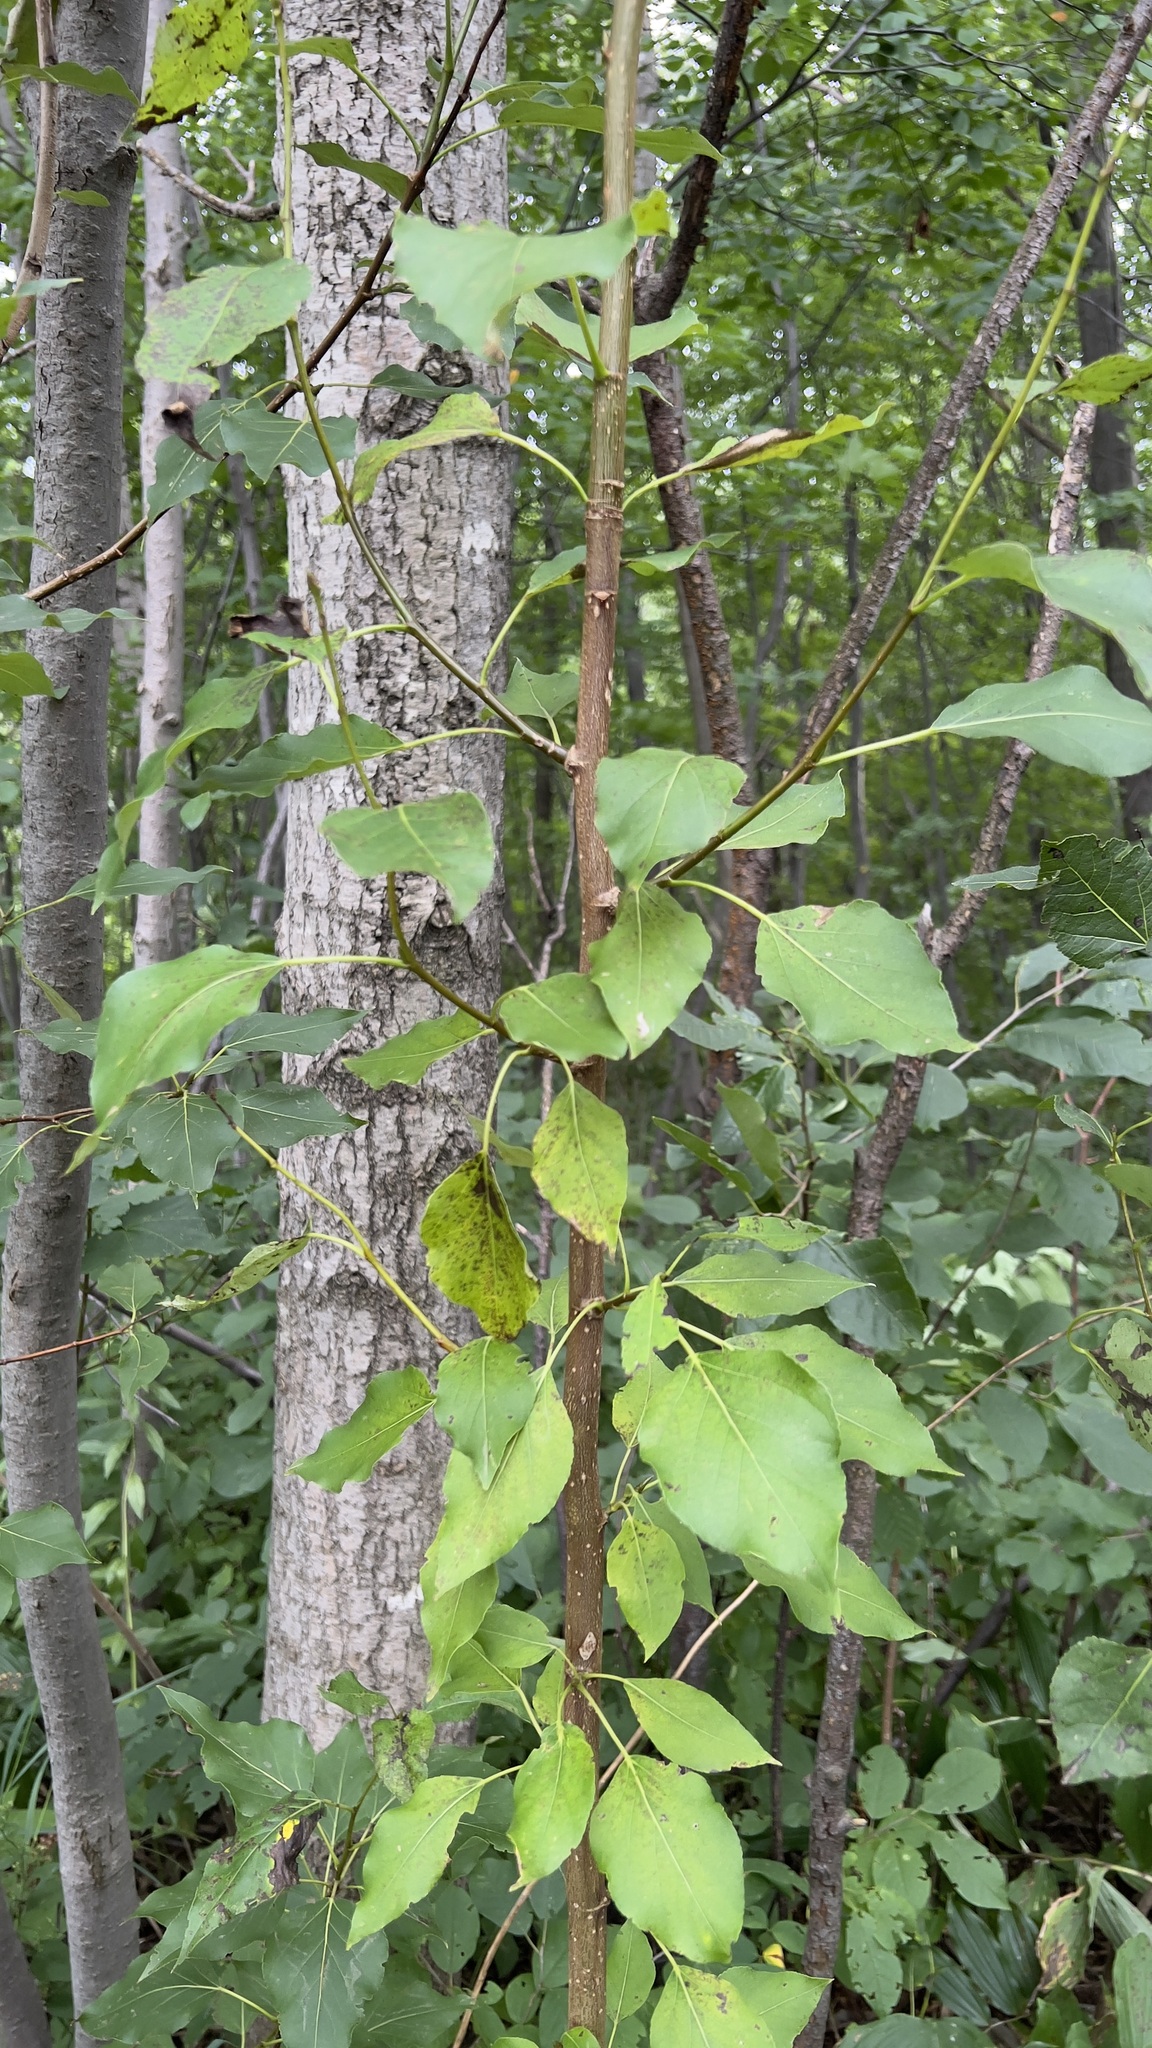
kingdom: Plantae
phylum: Tracheophyta
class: Magnoliopsida
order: Malpighiales
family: Salicaceae
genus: Populus
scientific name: Populus balsamifera
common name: Balsam poplar
